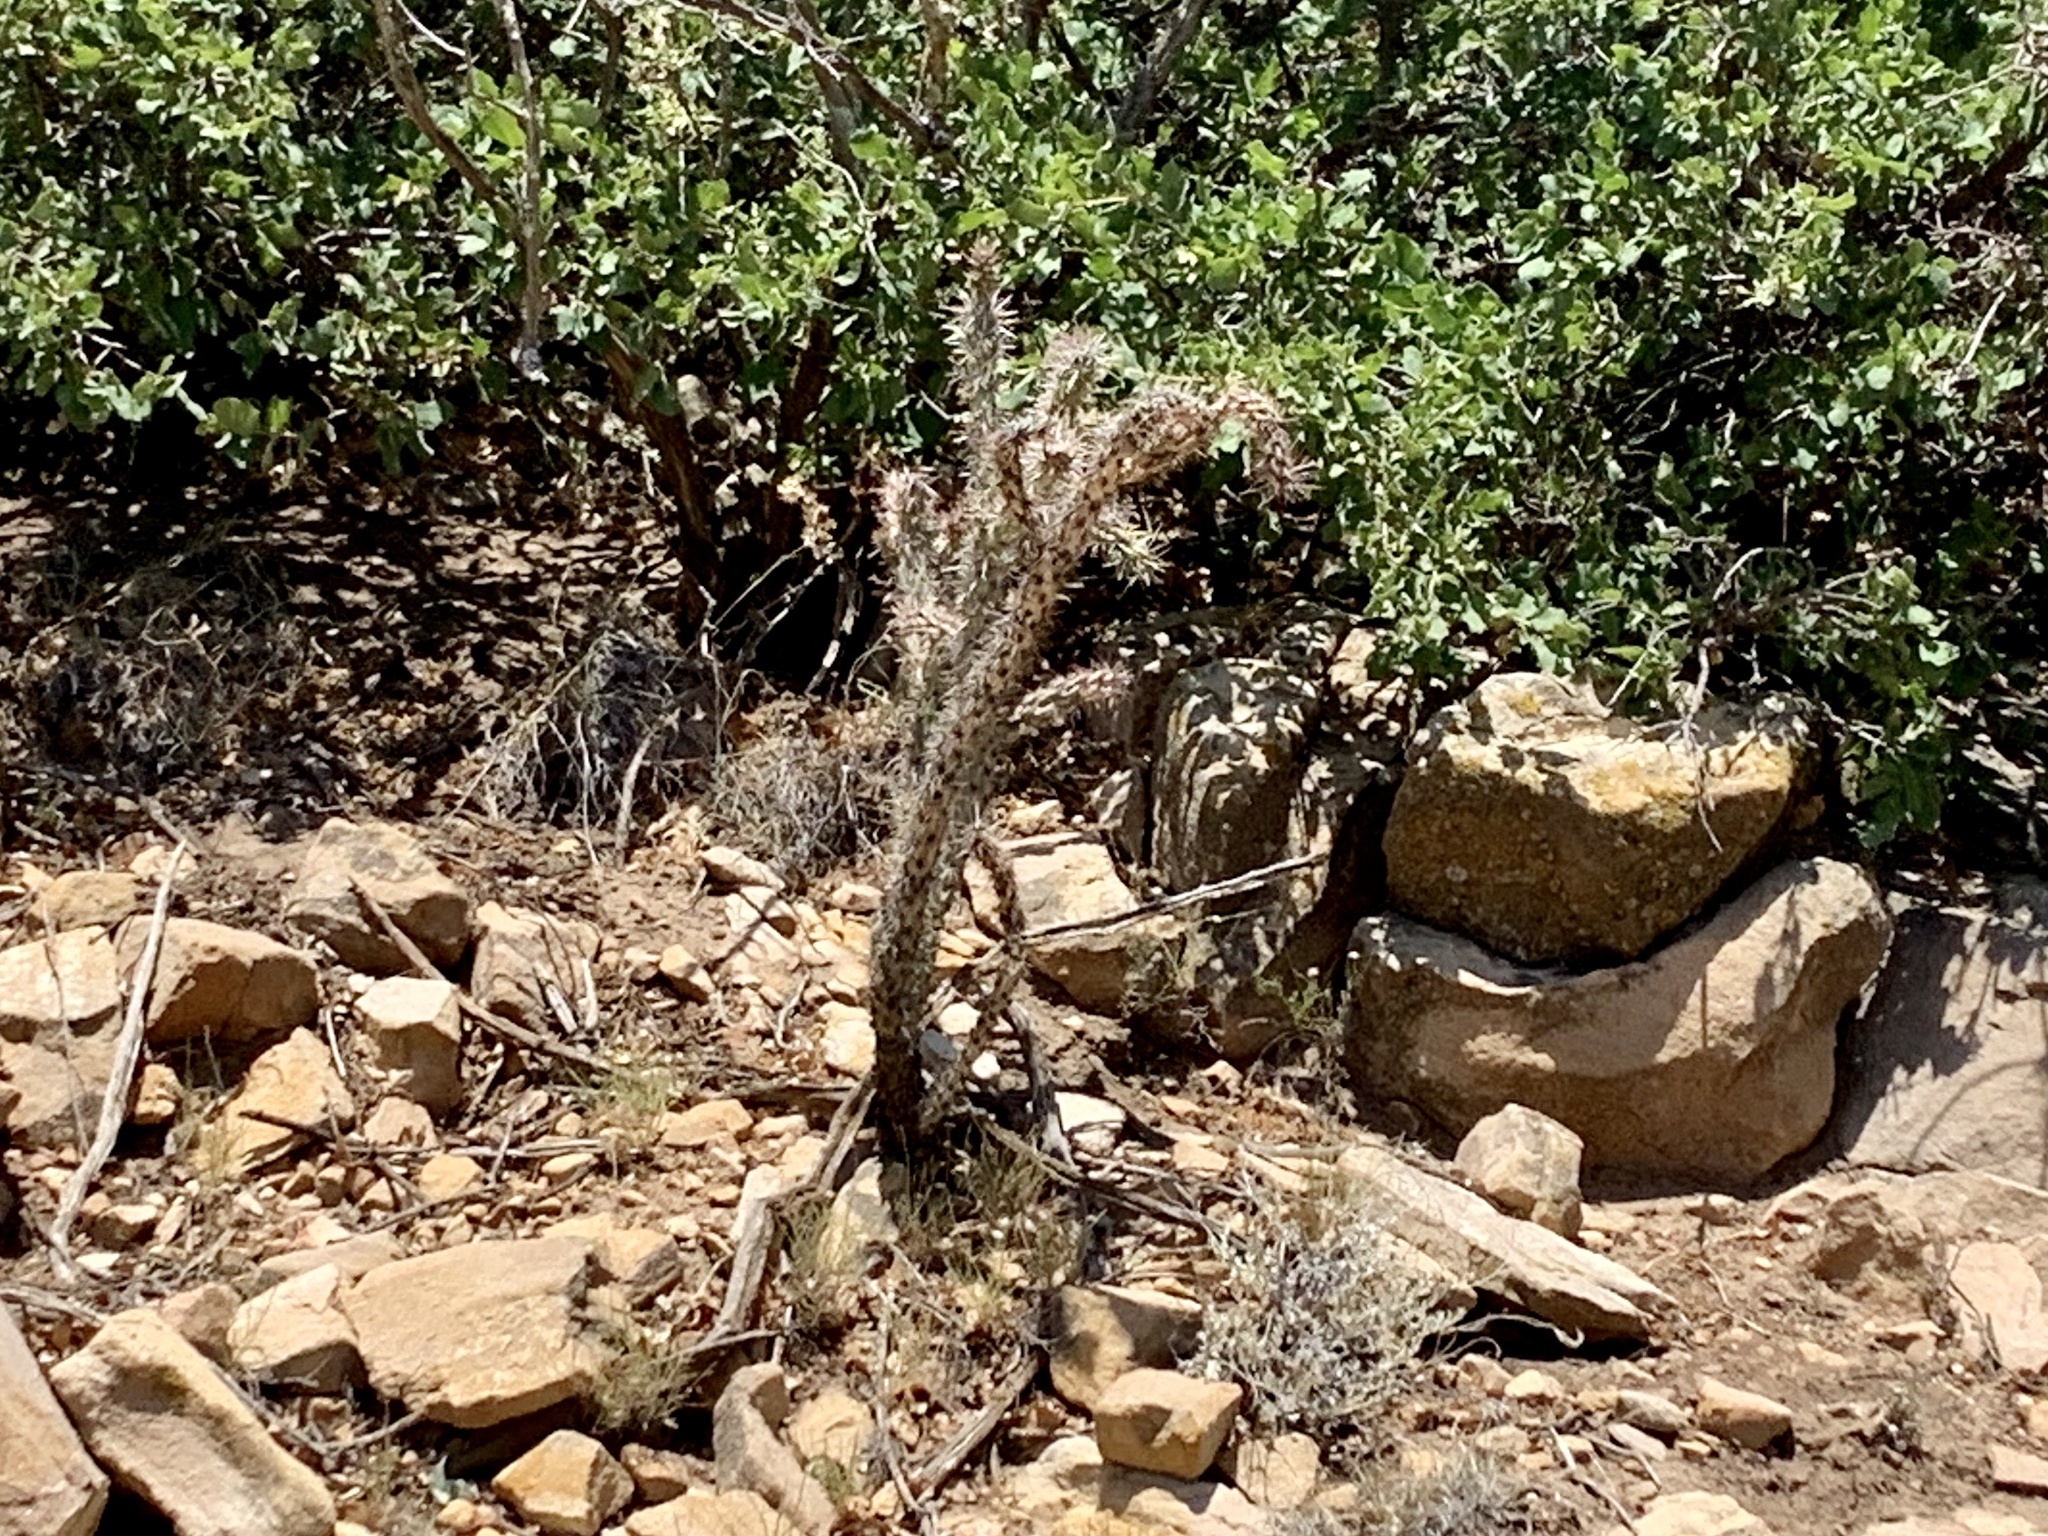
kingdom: Plantae
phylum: Tracheophyta
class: Magnoliopsida
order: Caryophyllales
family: Cactaceae
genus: Cylindropuntia
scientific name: Cylindropuntia imbricata
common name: Candelabrum cactus
